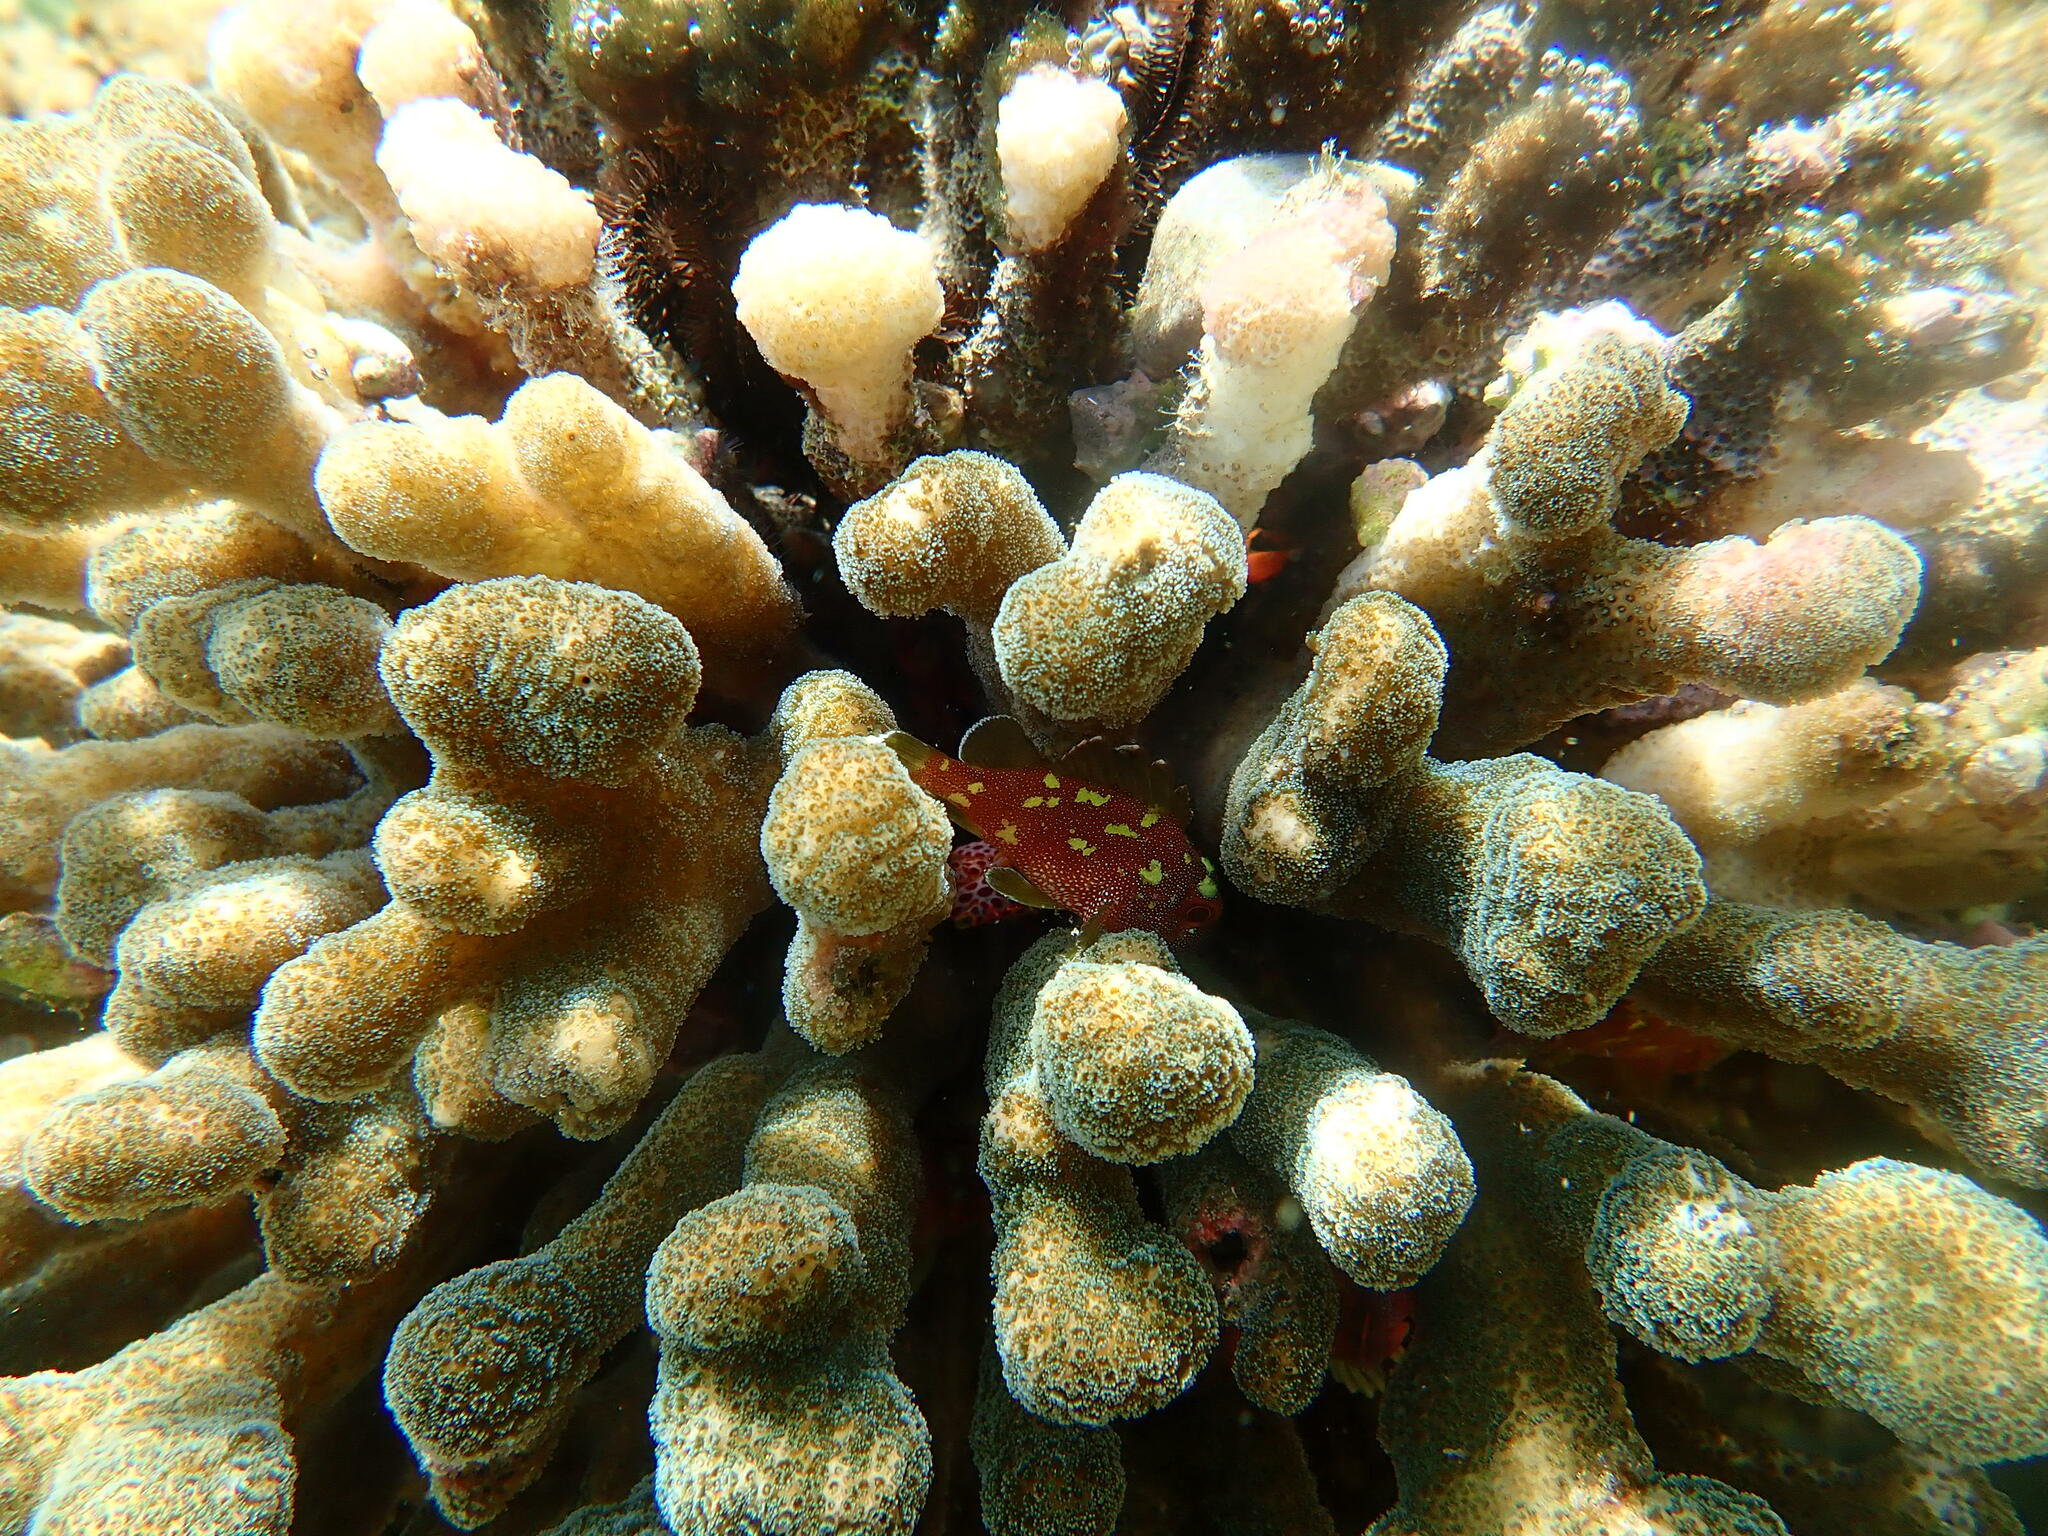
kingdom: Animalia
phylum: Chordata
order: Scorpaeniformes
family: Scorpaenidae
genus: Sebastapistes
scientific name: Sebastapistes cyanostigma
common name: Yellowspotted scorpionfish
